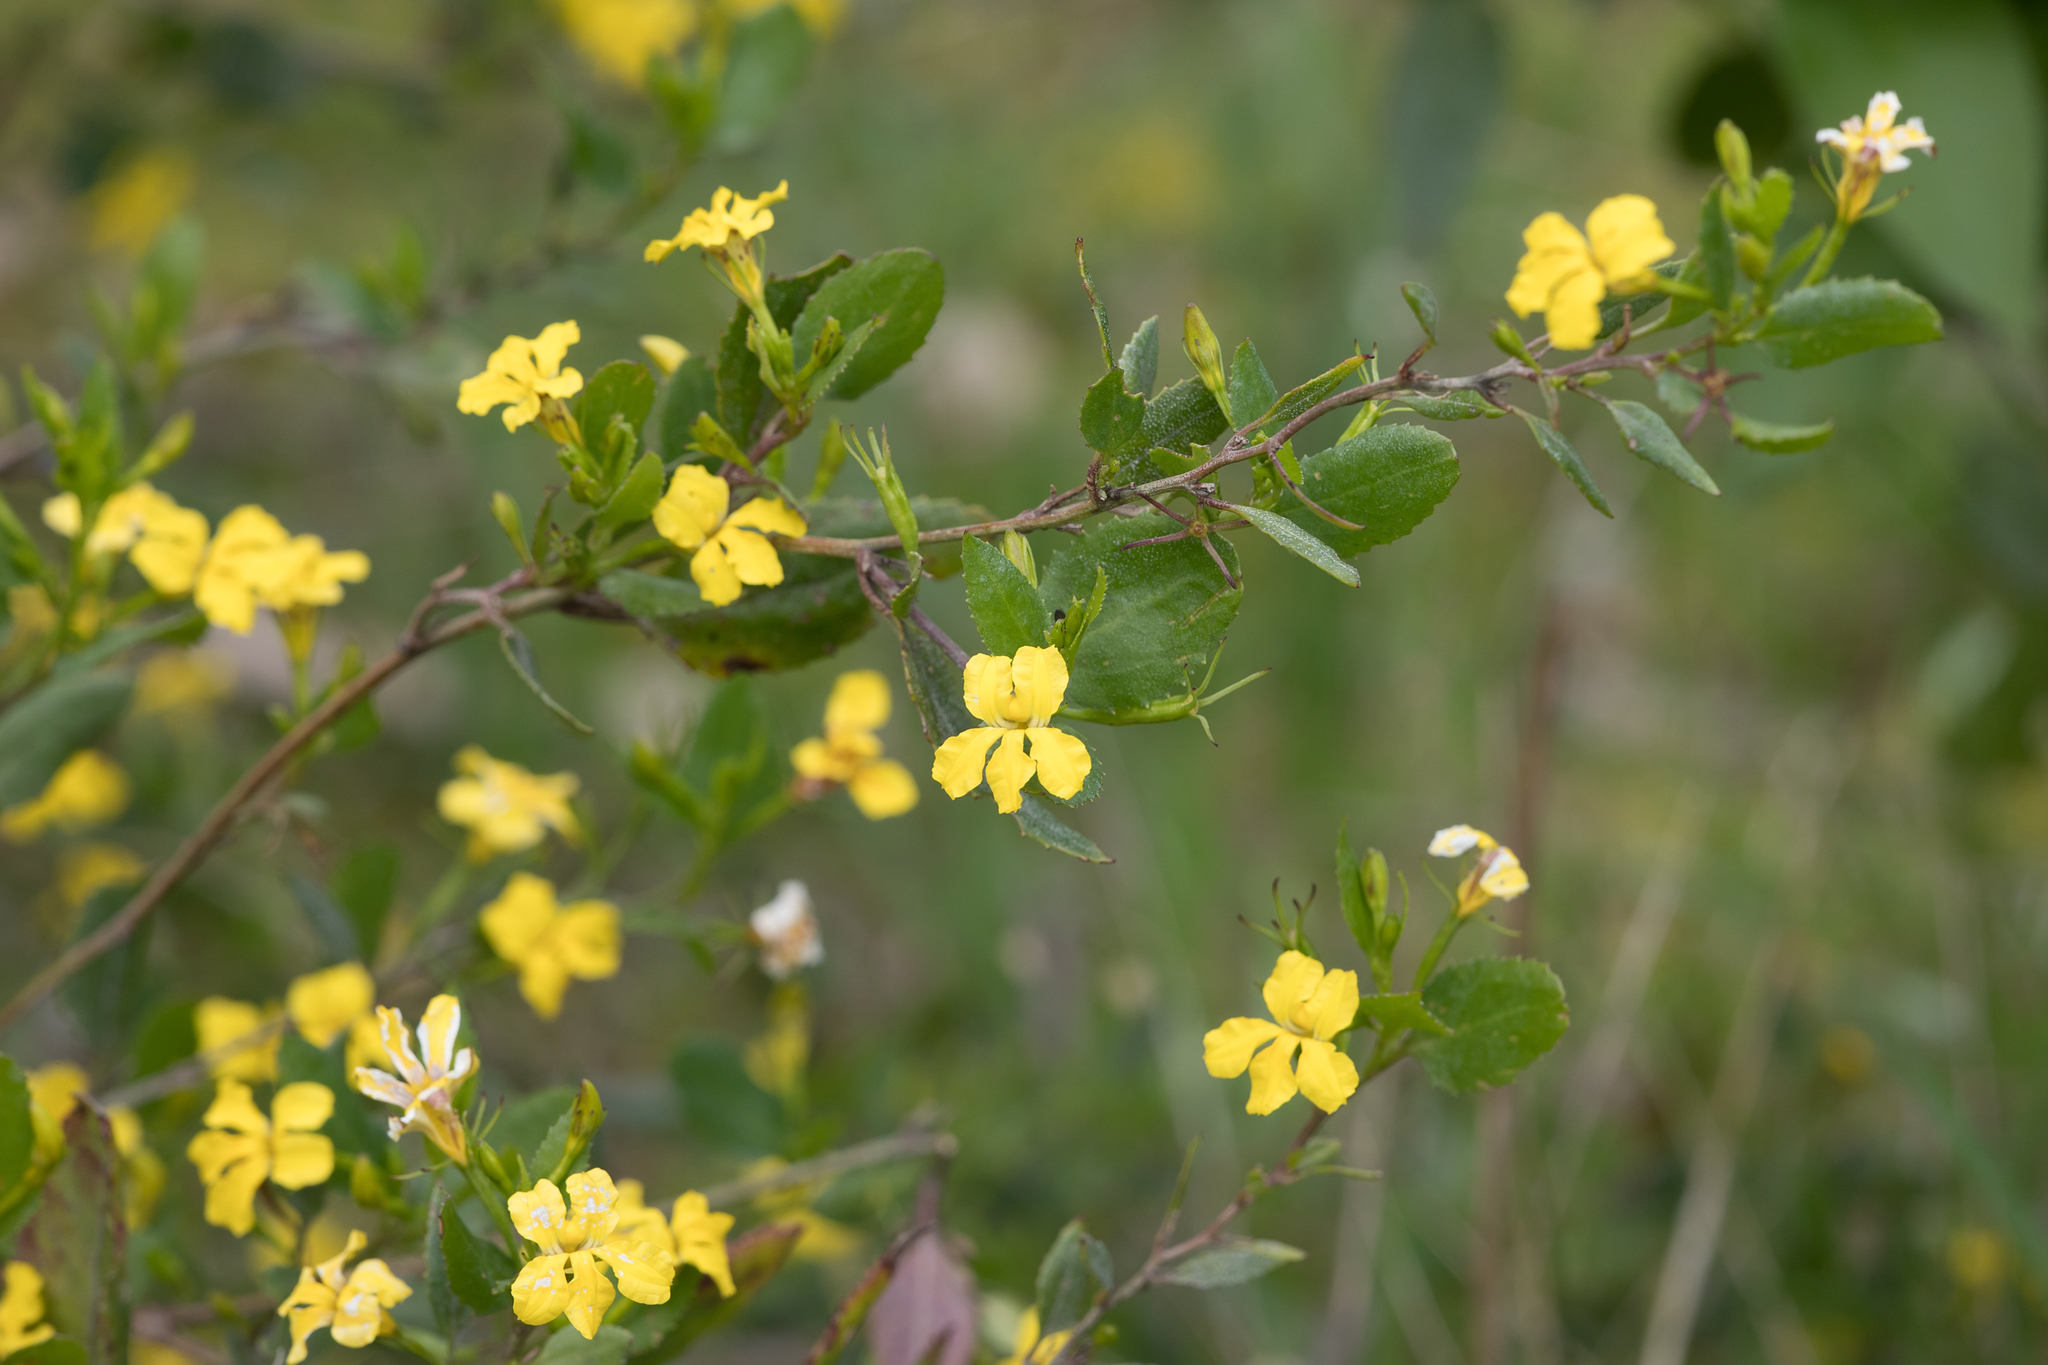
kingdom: Plantae
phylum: Tracheophyta
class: Magnoliopsida
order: Asterales
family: Goodeniaceae
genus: Goodenia
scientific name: Goodenia ovata
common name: Hop goodenia
